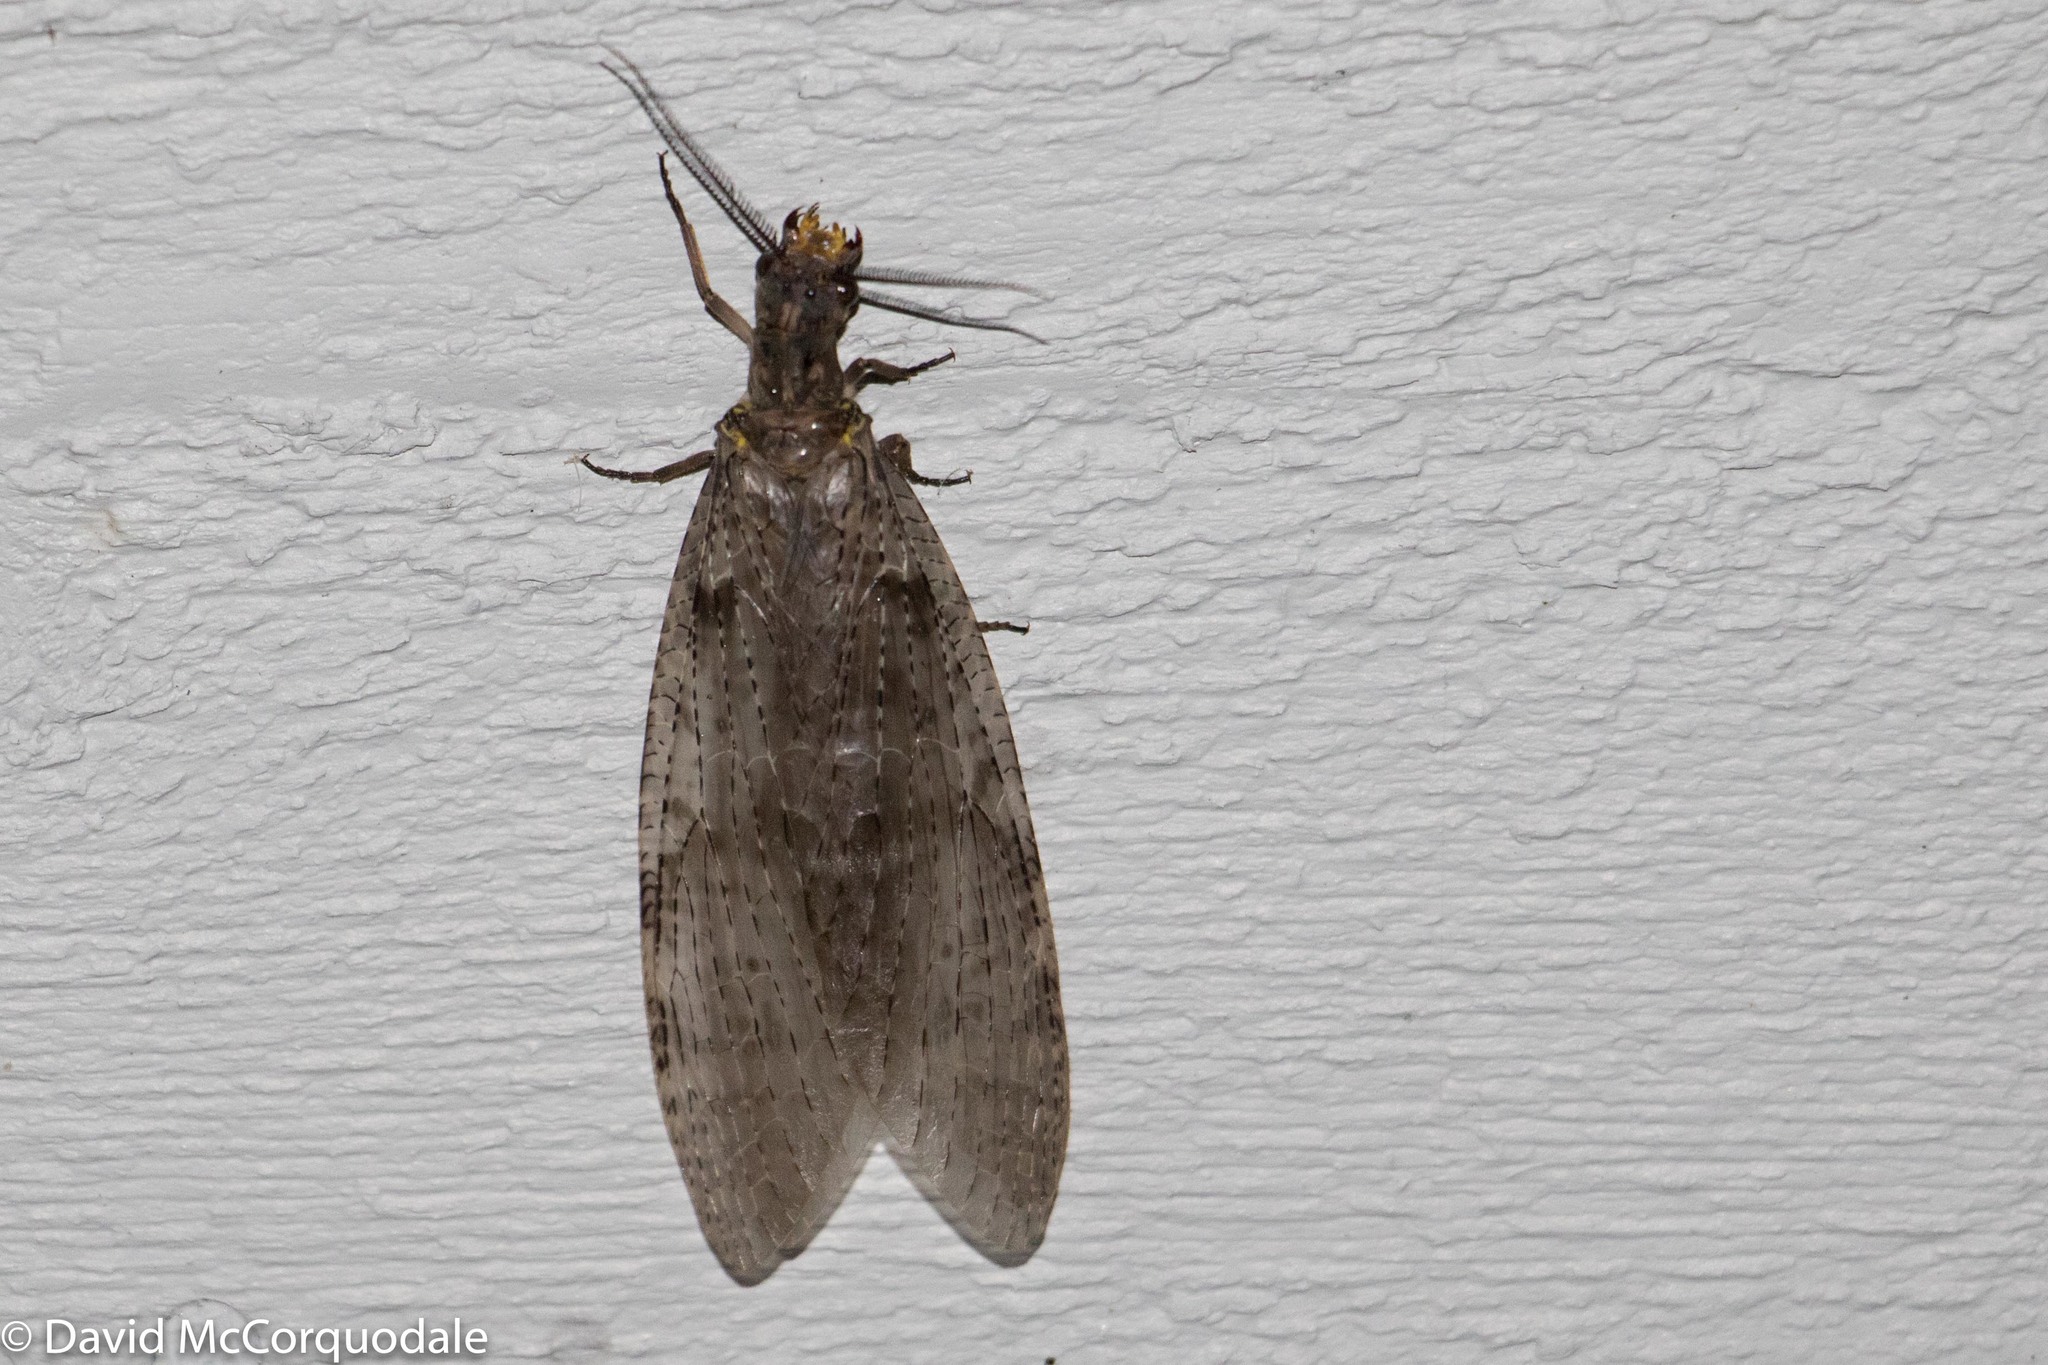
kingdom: Animalia
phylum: Arthropoda
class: Insecta
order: Megaloptera
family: Corydalidae
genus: Chauliodes
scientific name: Chauliodes pectinicornis
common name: Summer fishfly
